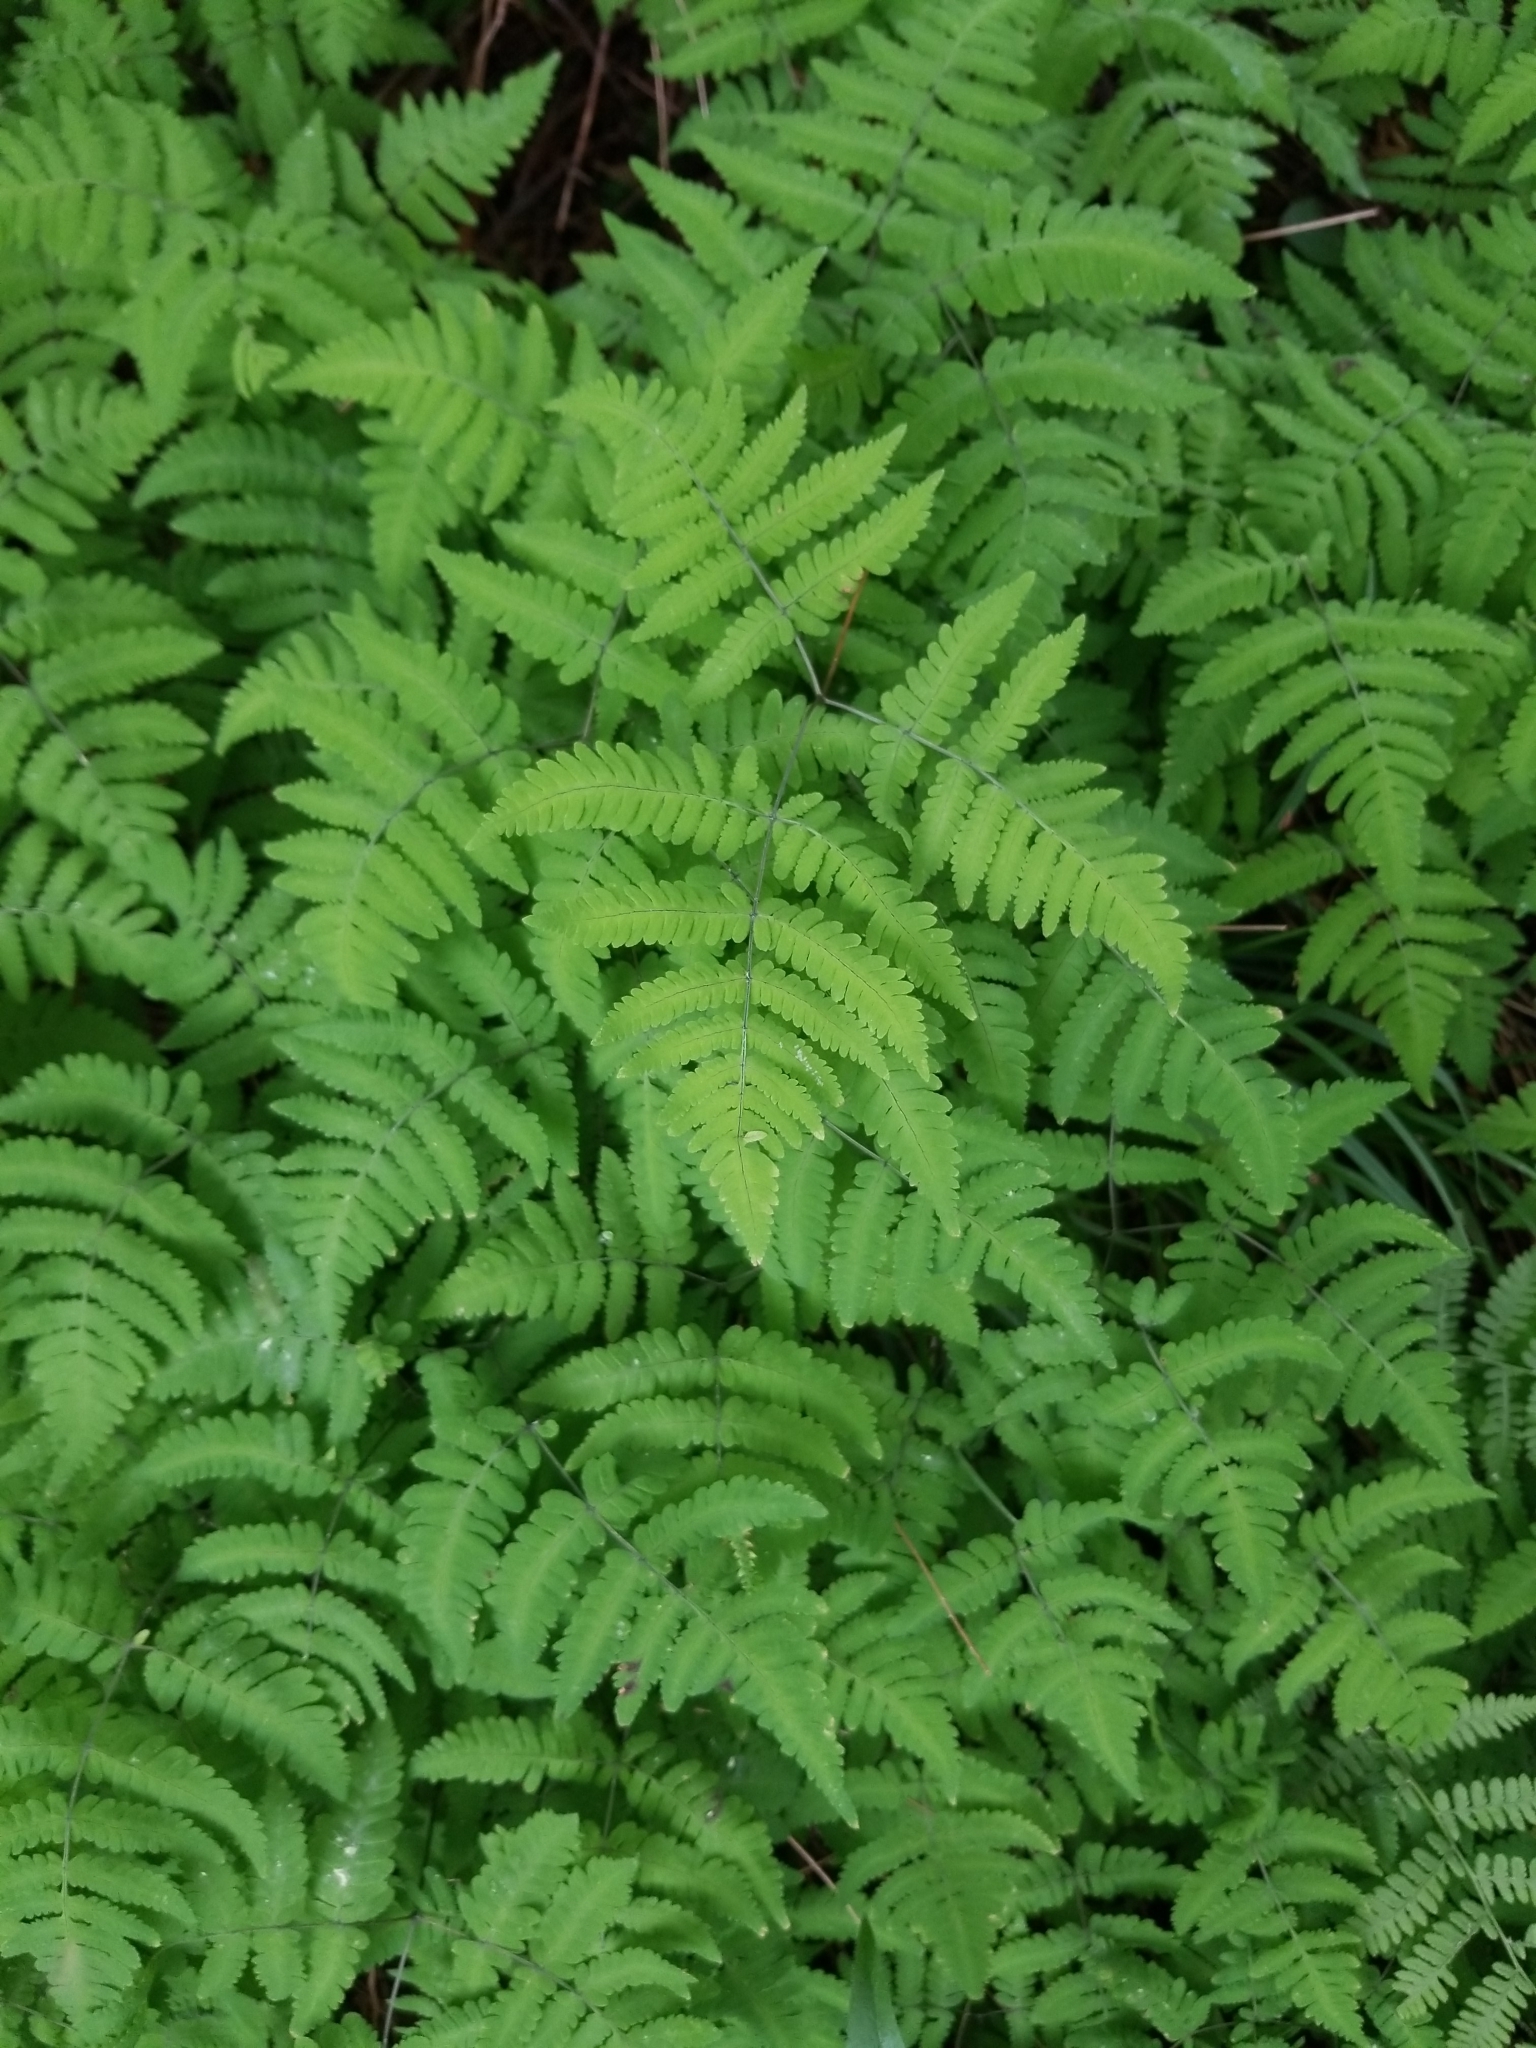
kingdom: Plantae
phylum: Tracheophyta
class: Polypodiopsida
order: Polypodiales
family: Cystopteridaceae
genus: Gymnocarpium
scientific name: Gymnocarpium dryopteris
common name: Oak fern
